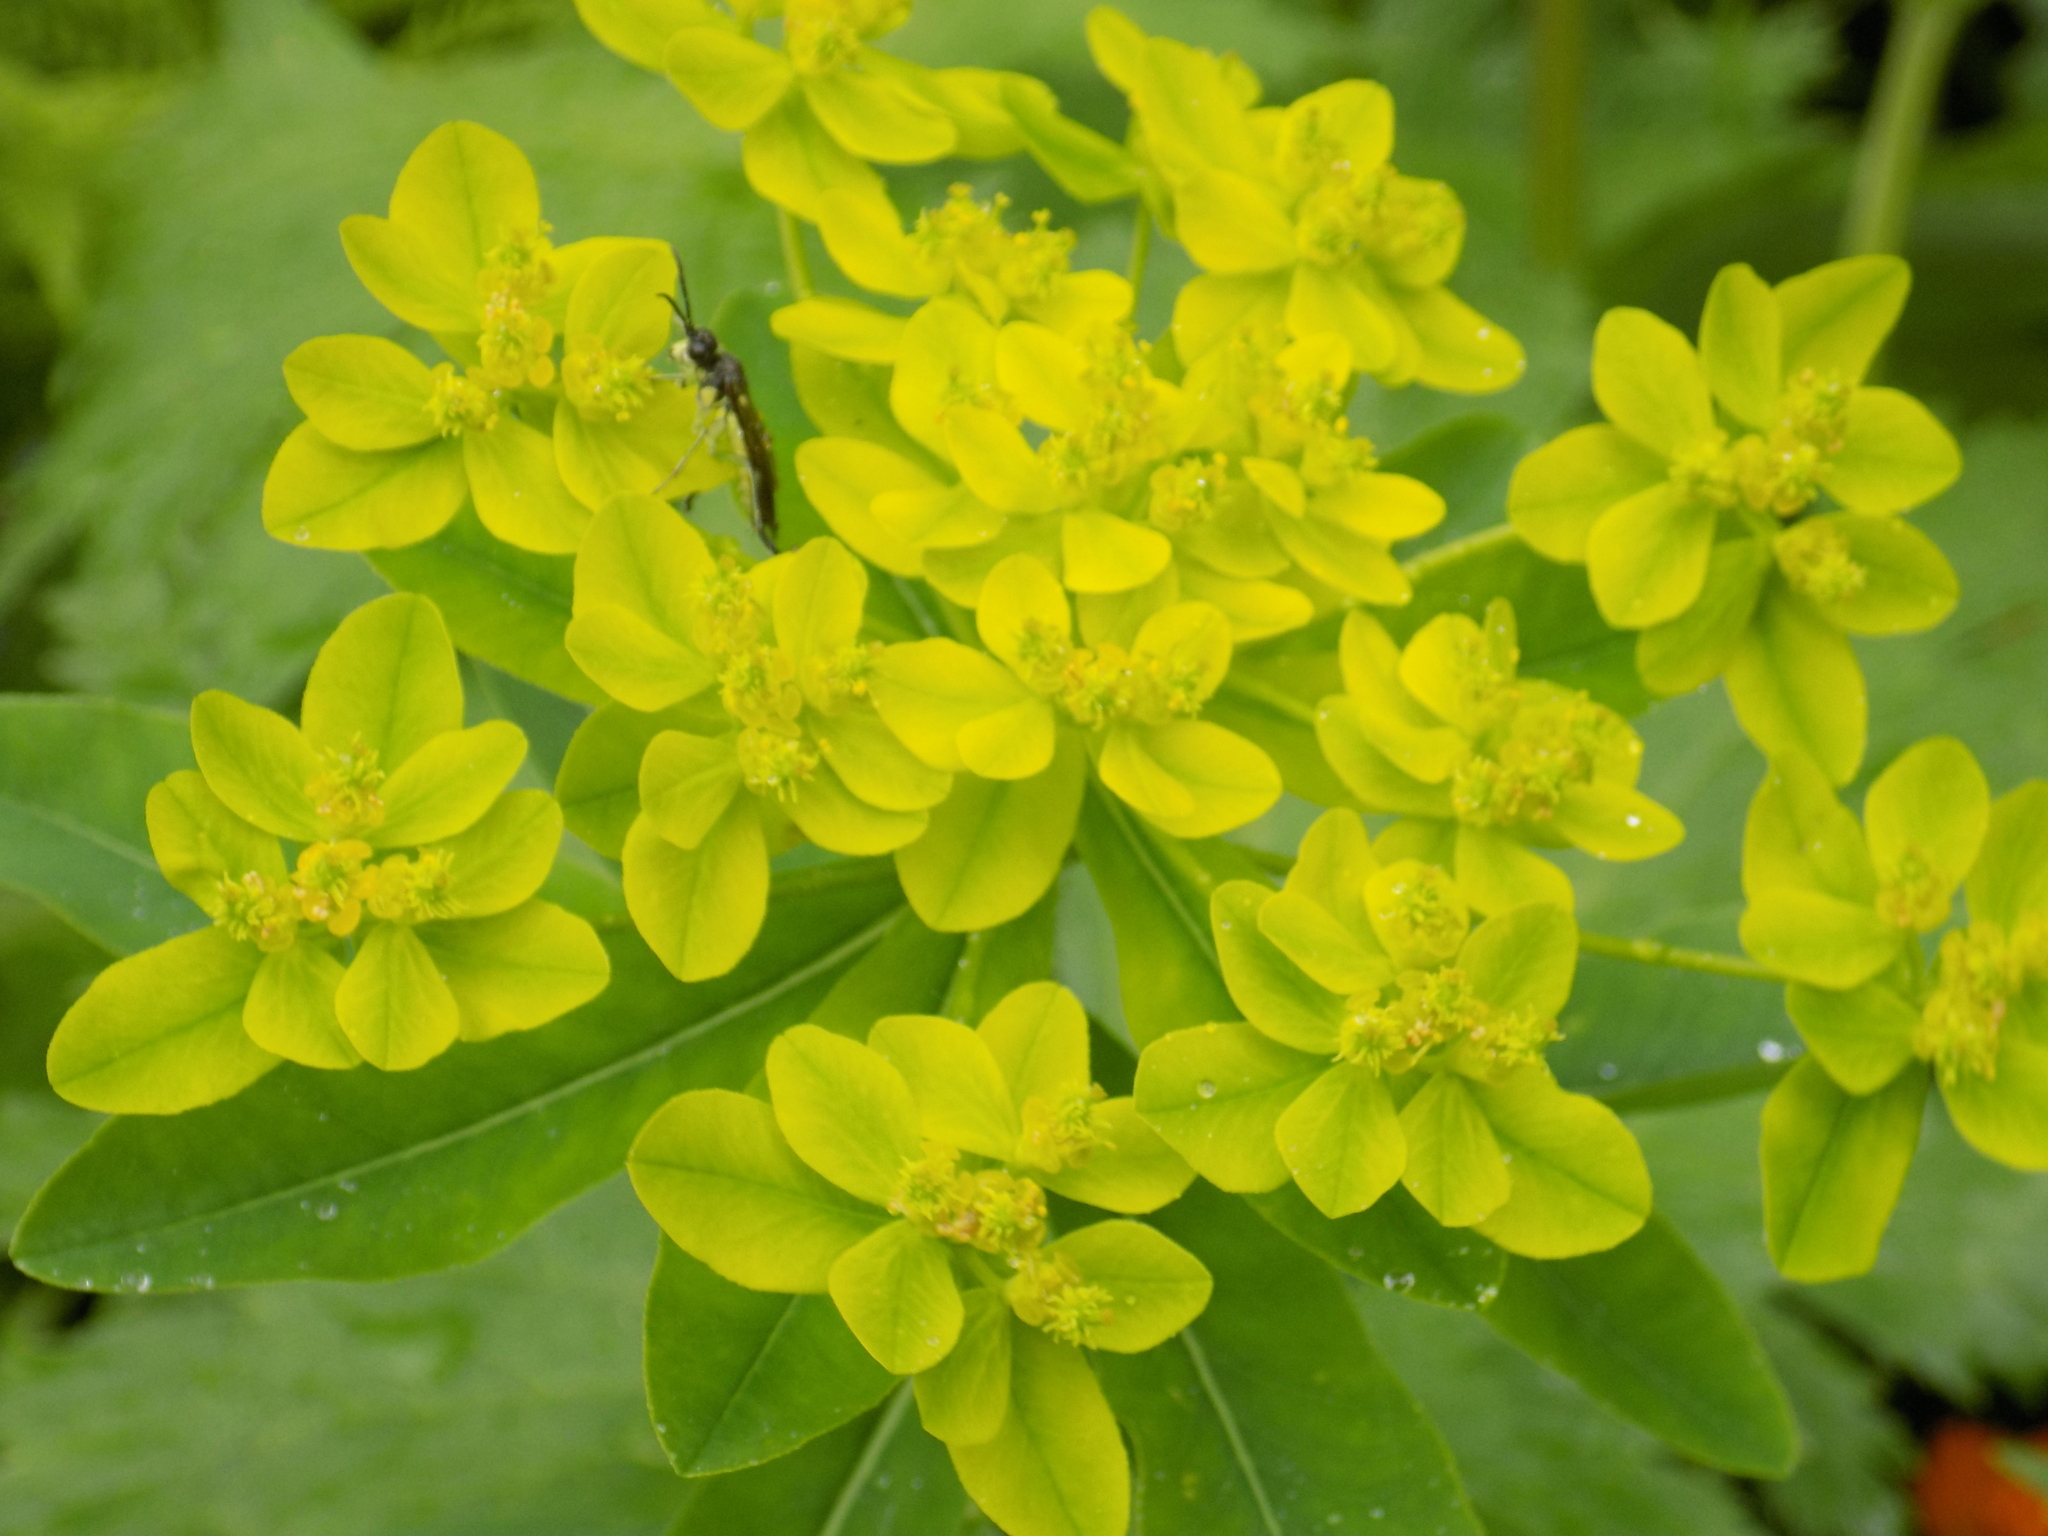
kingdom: Plantae
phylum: Tracheophyta
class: Magnoliopsida
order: Malpighiales
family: Euphorbiaceae
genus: Euphorbia
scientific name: Euphorbia pilosa
